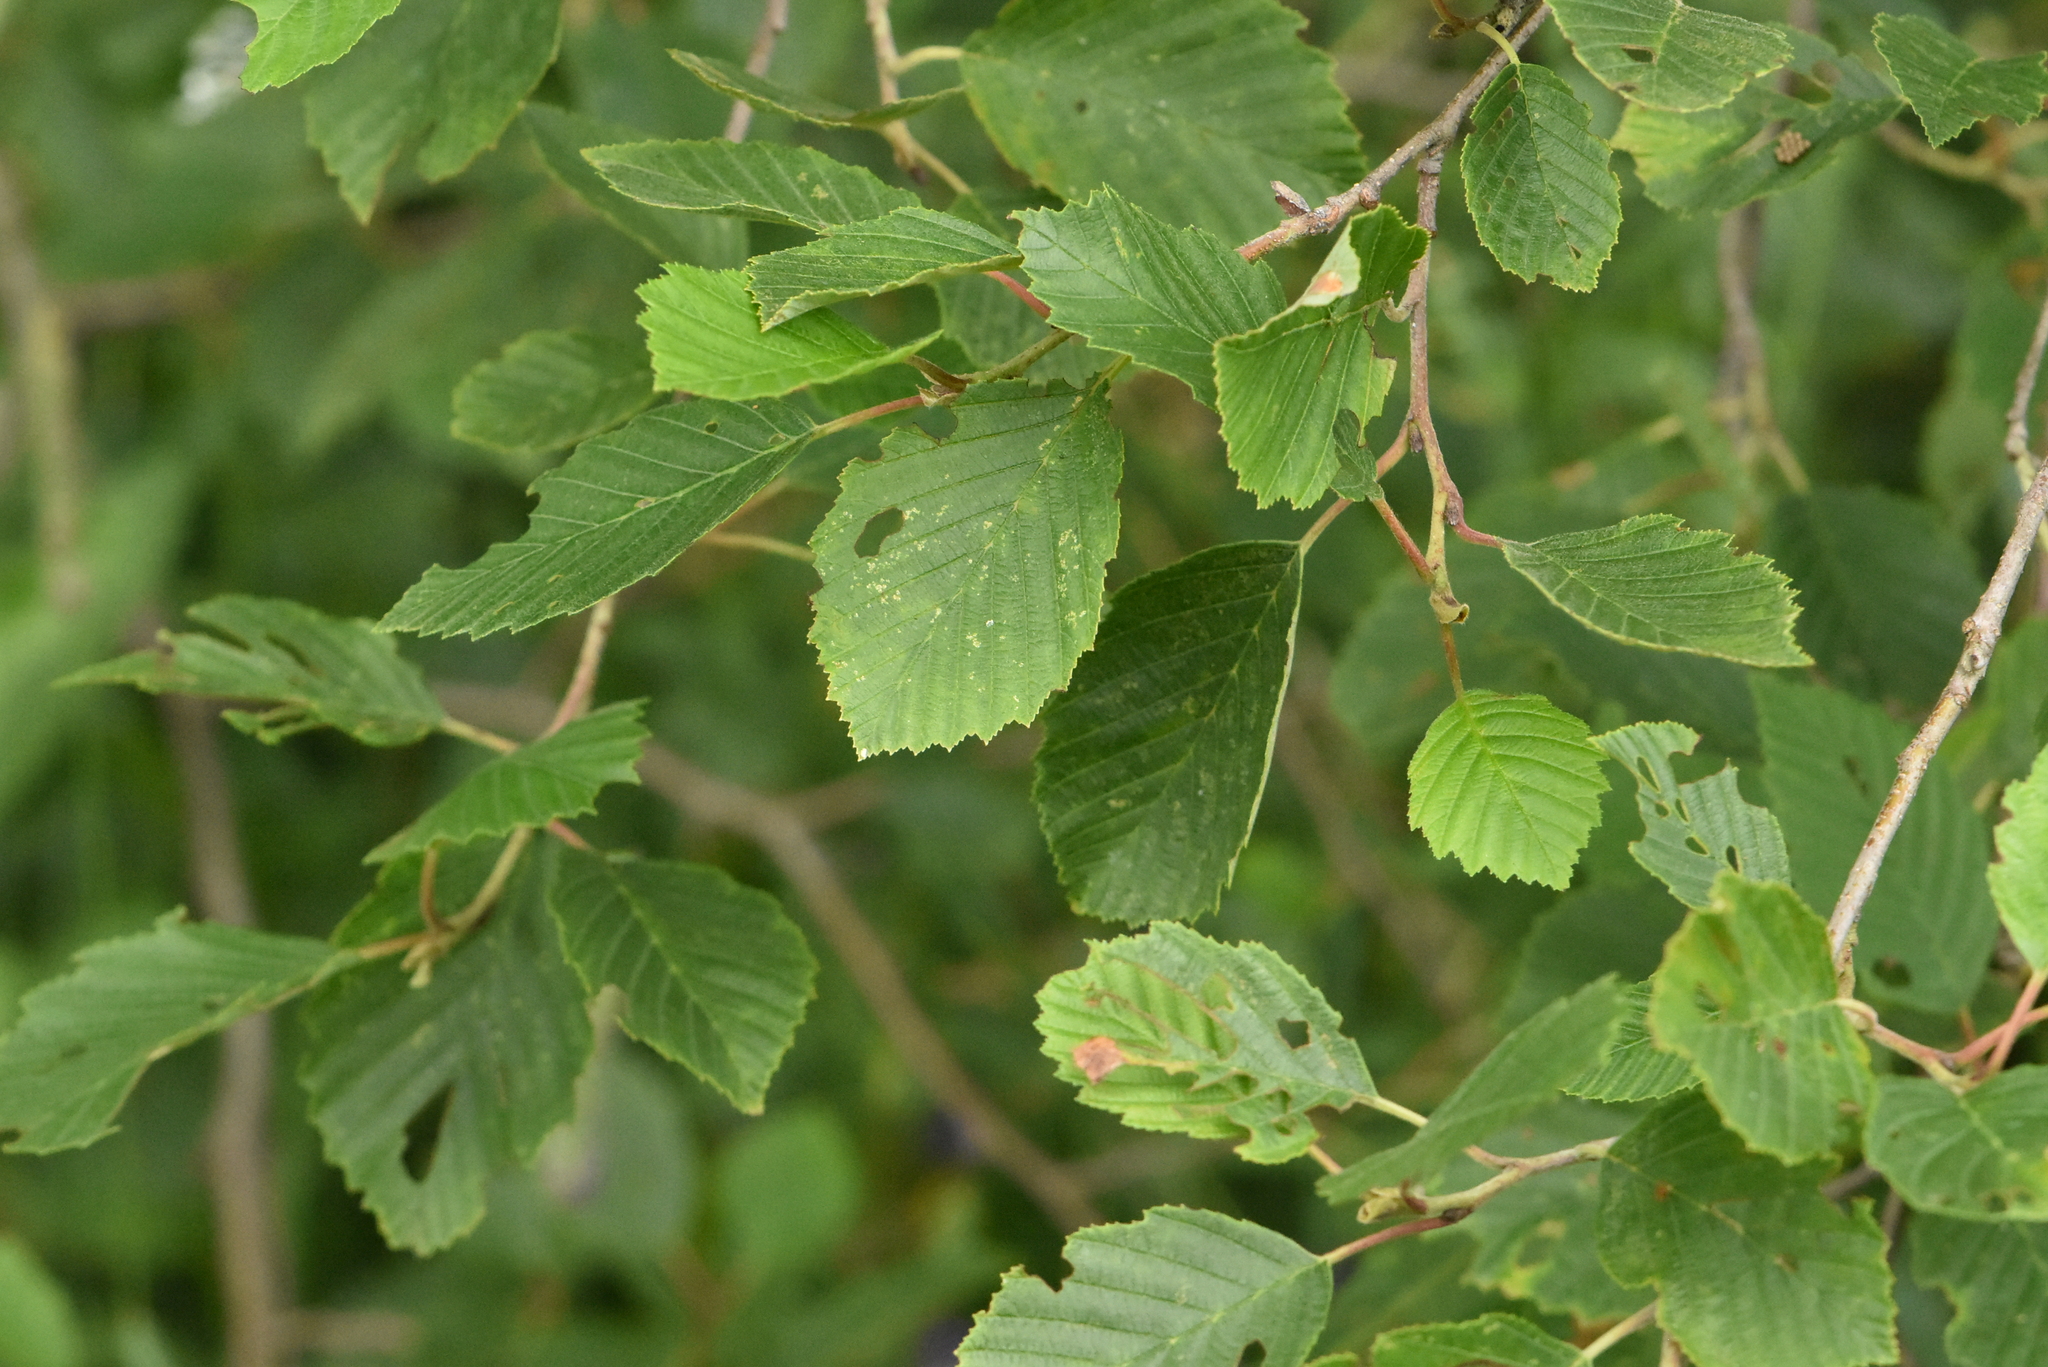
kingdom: Plantae
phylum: Tracheophyta
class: Magnoliopsida
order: Fagales
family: Betulaceae
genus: Alnus
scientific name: Alnus incana
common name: Grey alder
